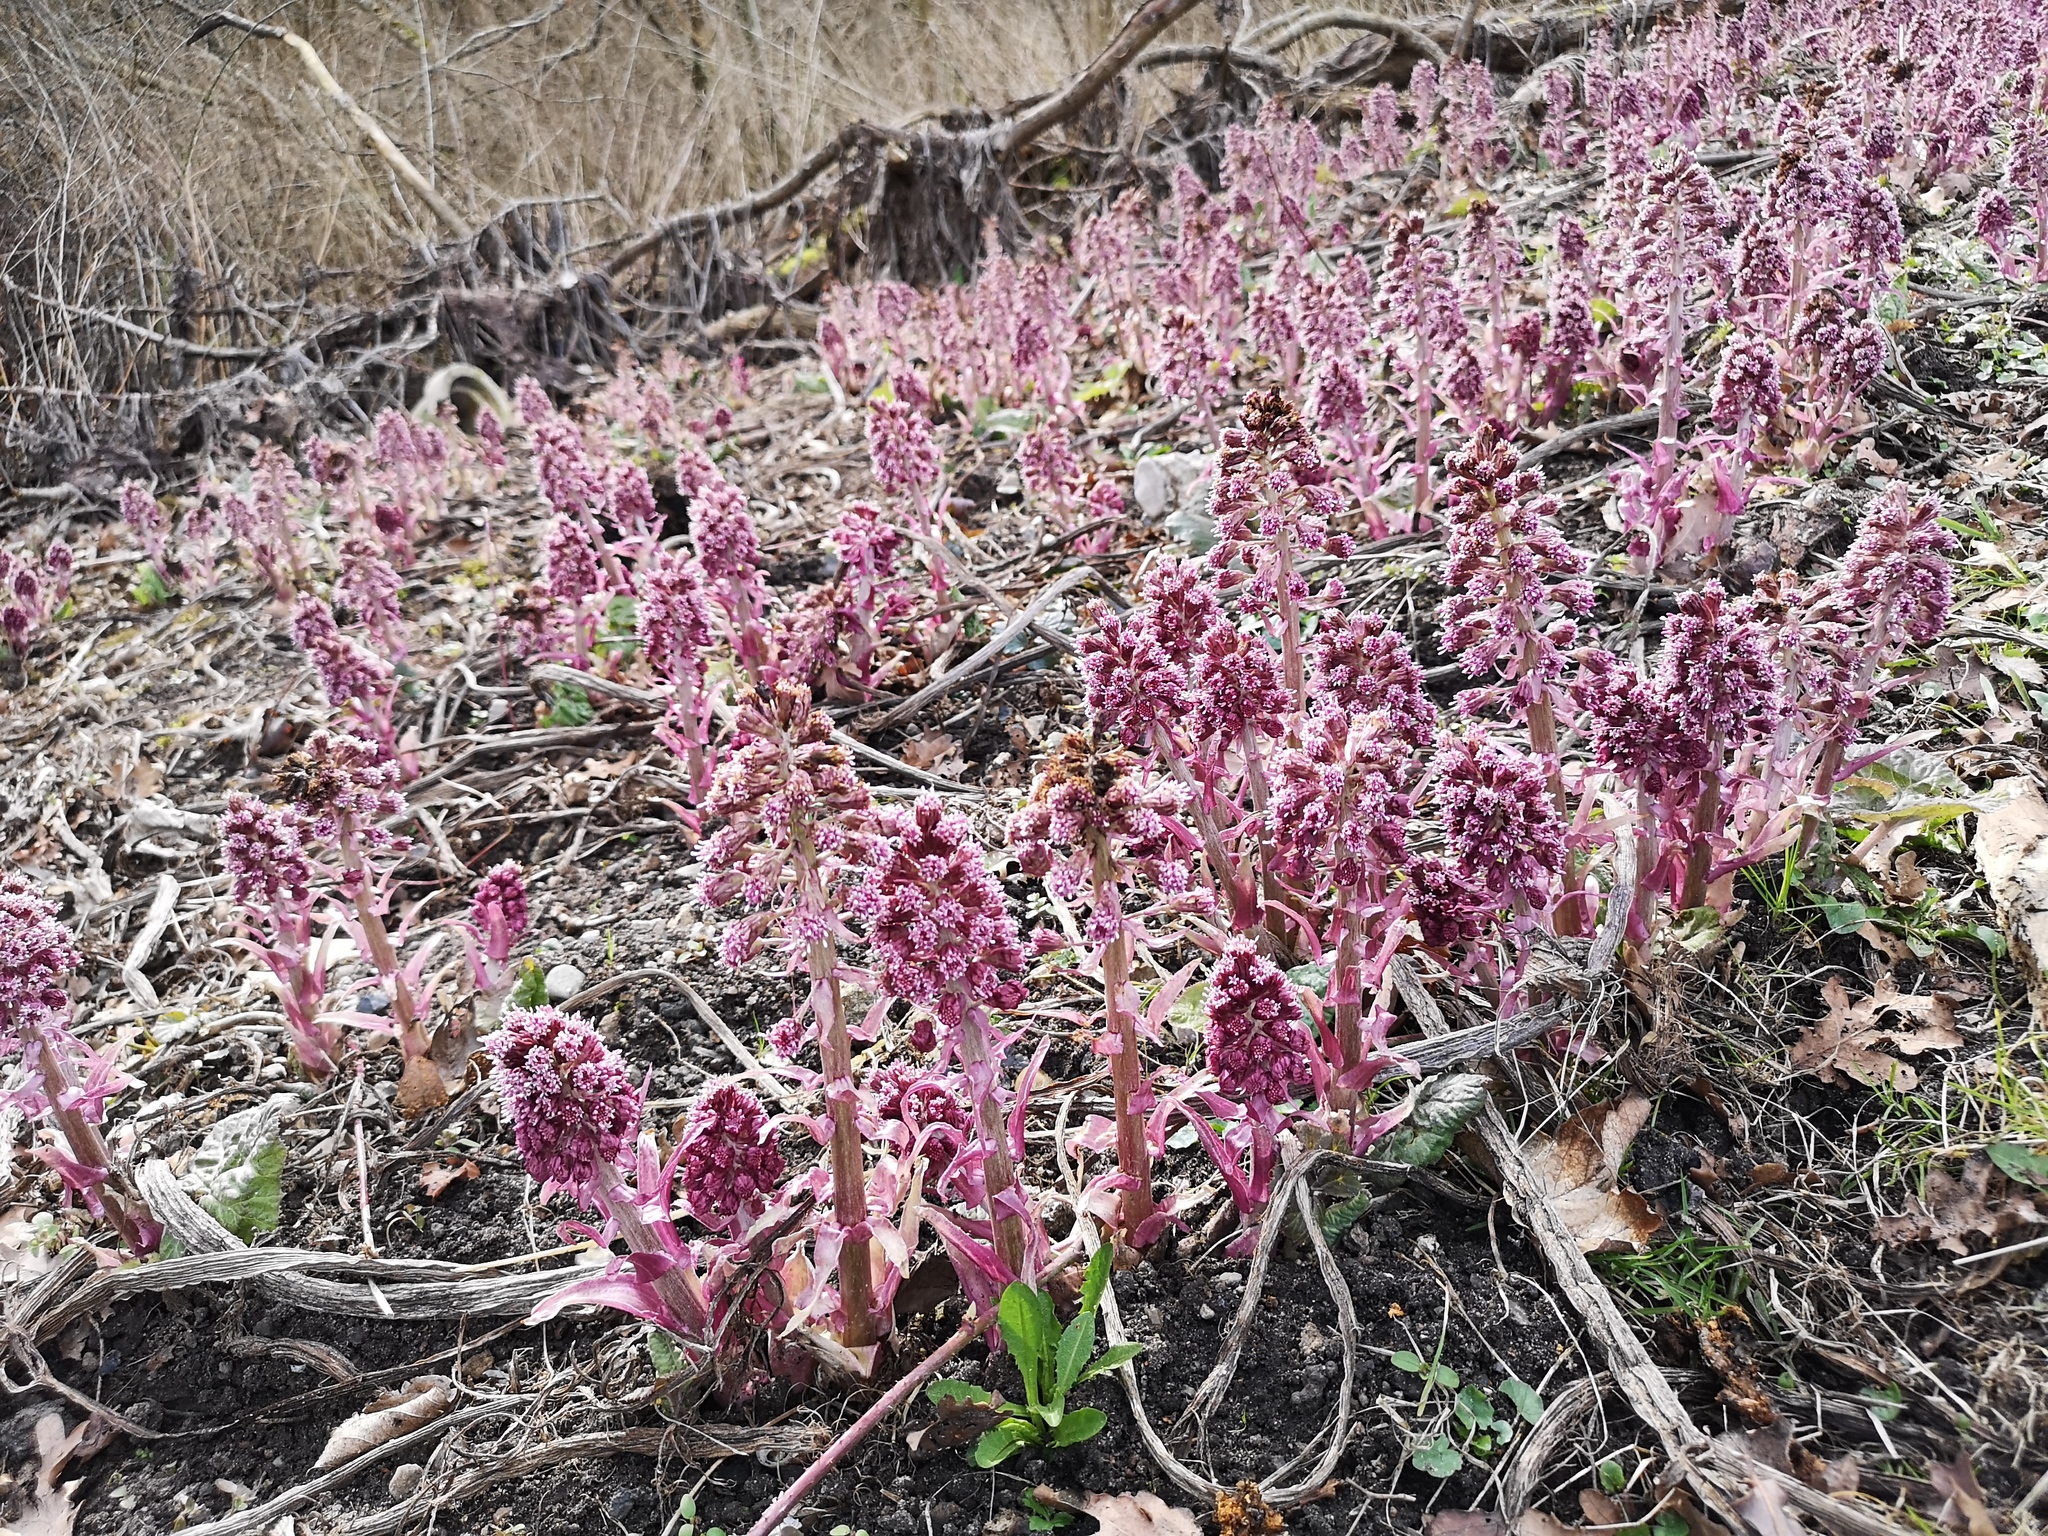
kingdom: Plantae
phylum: Tracheophyta
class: Magnoliopsida
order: Asterales
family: Asteraceae
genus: Petasites
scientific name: Petasites hybridus
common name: Butterbur
